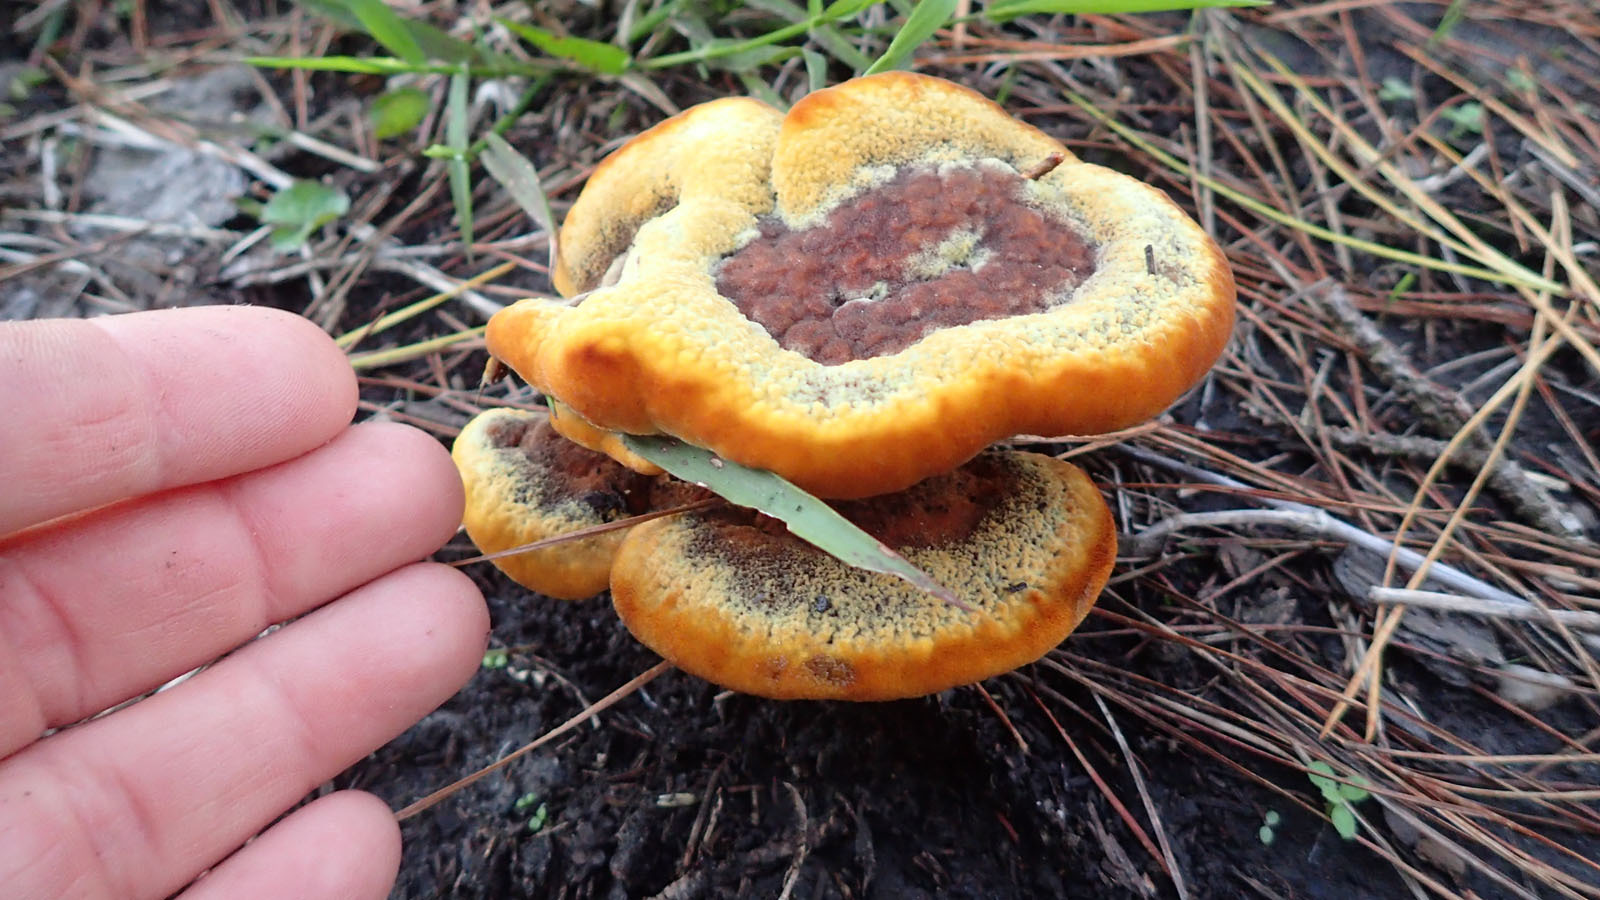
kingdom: Fungi
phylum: Basidiomycota
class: Agaricomycetes
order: Polyporales
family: Laetiporaceae
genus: Phaeolus
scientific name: Phaeolus schweinitzii
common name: Dyer's mazegill
